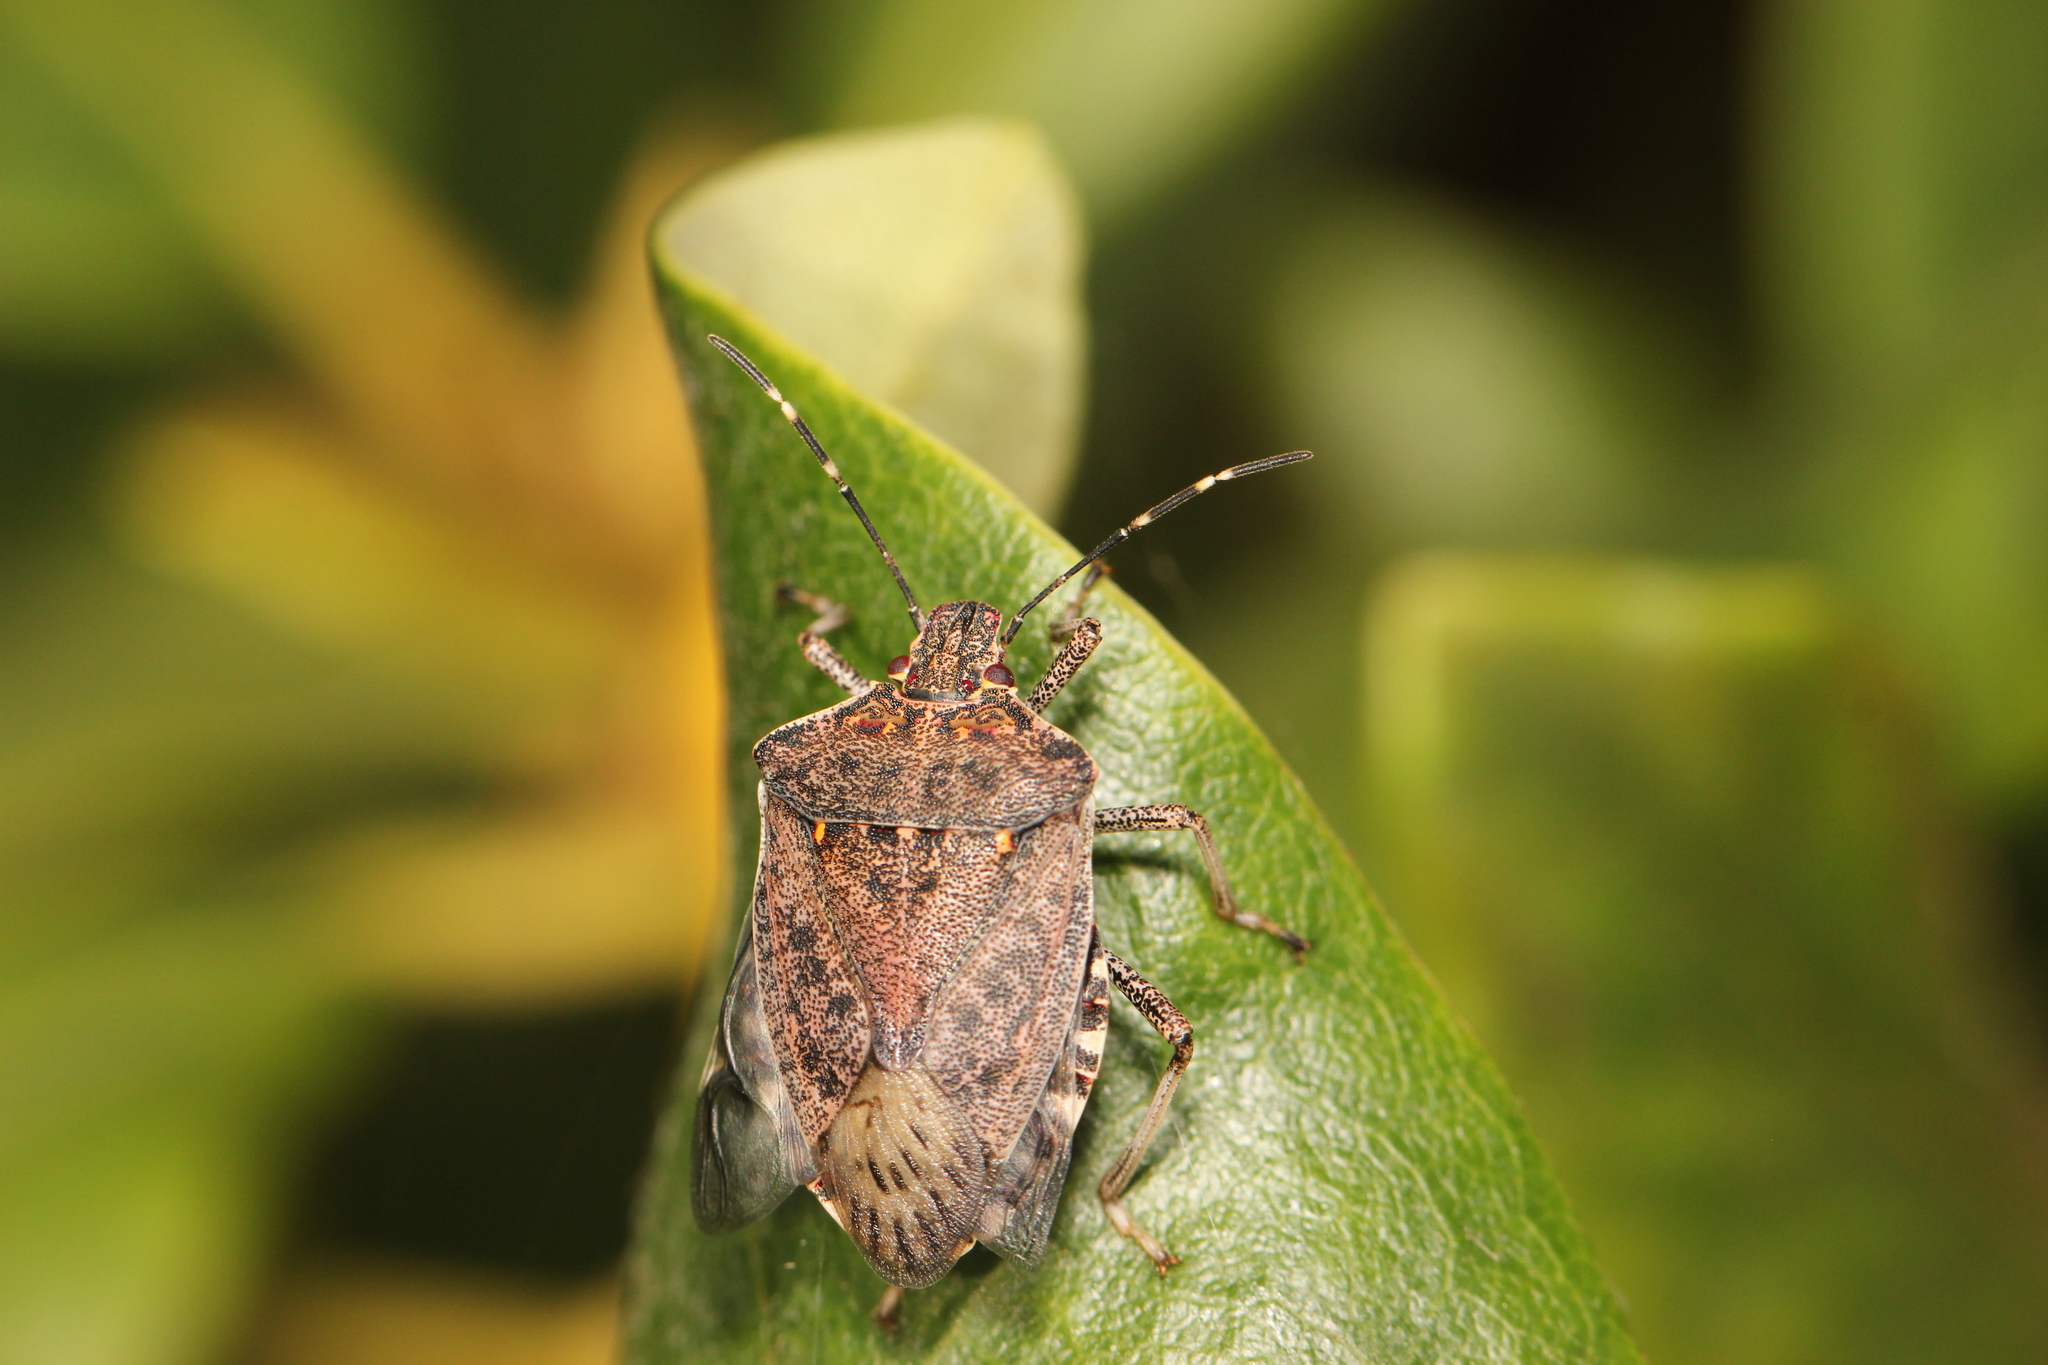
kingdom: Animalia
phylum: Arthropoda
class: Insecta
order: Hemiptera
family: Pentatomidae
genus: Halyomorpha
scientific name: Halyomorpha halys
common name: Brown marmorated stink bug
